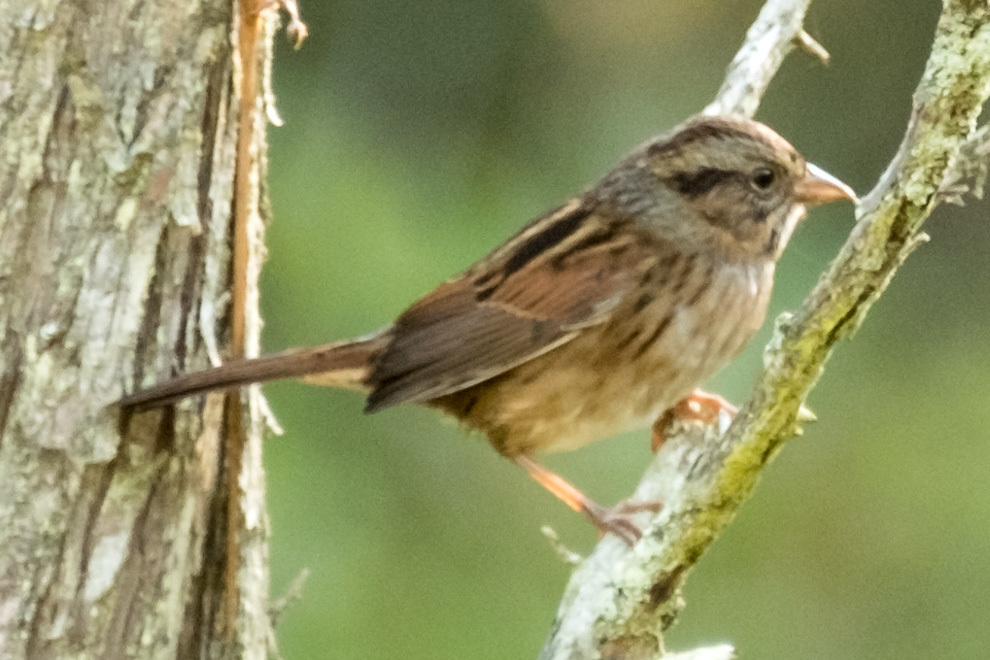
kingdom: Animalia
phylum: Chordata
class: Aves
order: Passeriformes
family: Passerellidae
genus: Melospiza
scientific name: Melospiza georgiana
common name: Swamp sparrow
